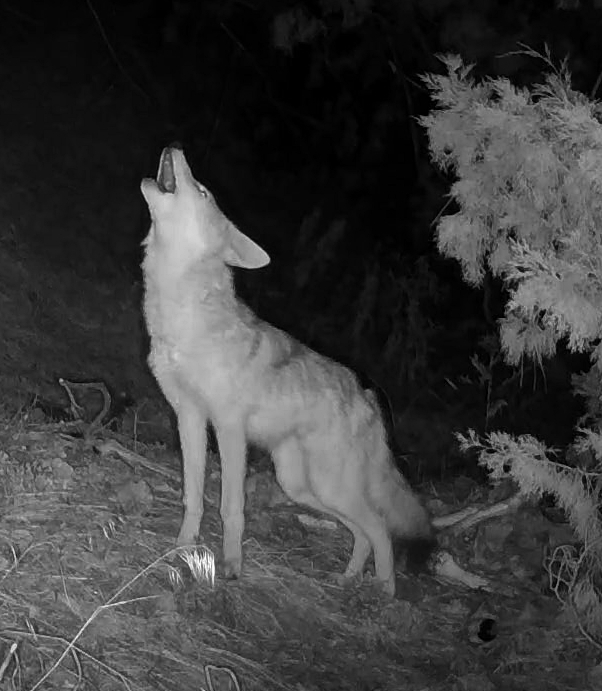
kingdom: Animalia
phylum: Chordata
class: Mammalia
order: Carnivora
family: Canidae
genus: Canis
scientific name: Canis latrans
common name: Coyote
